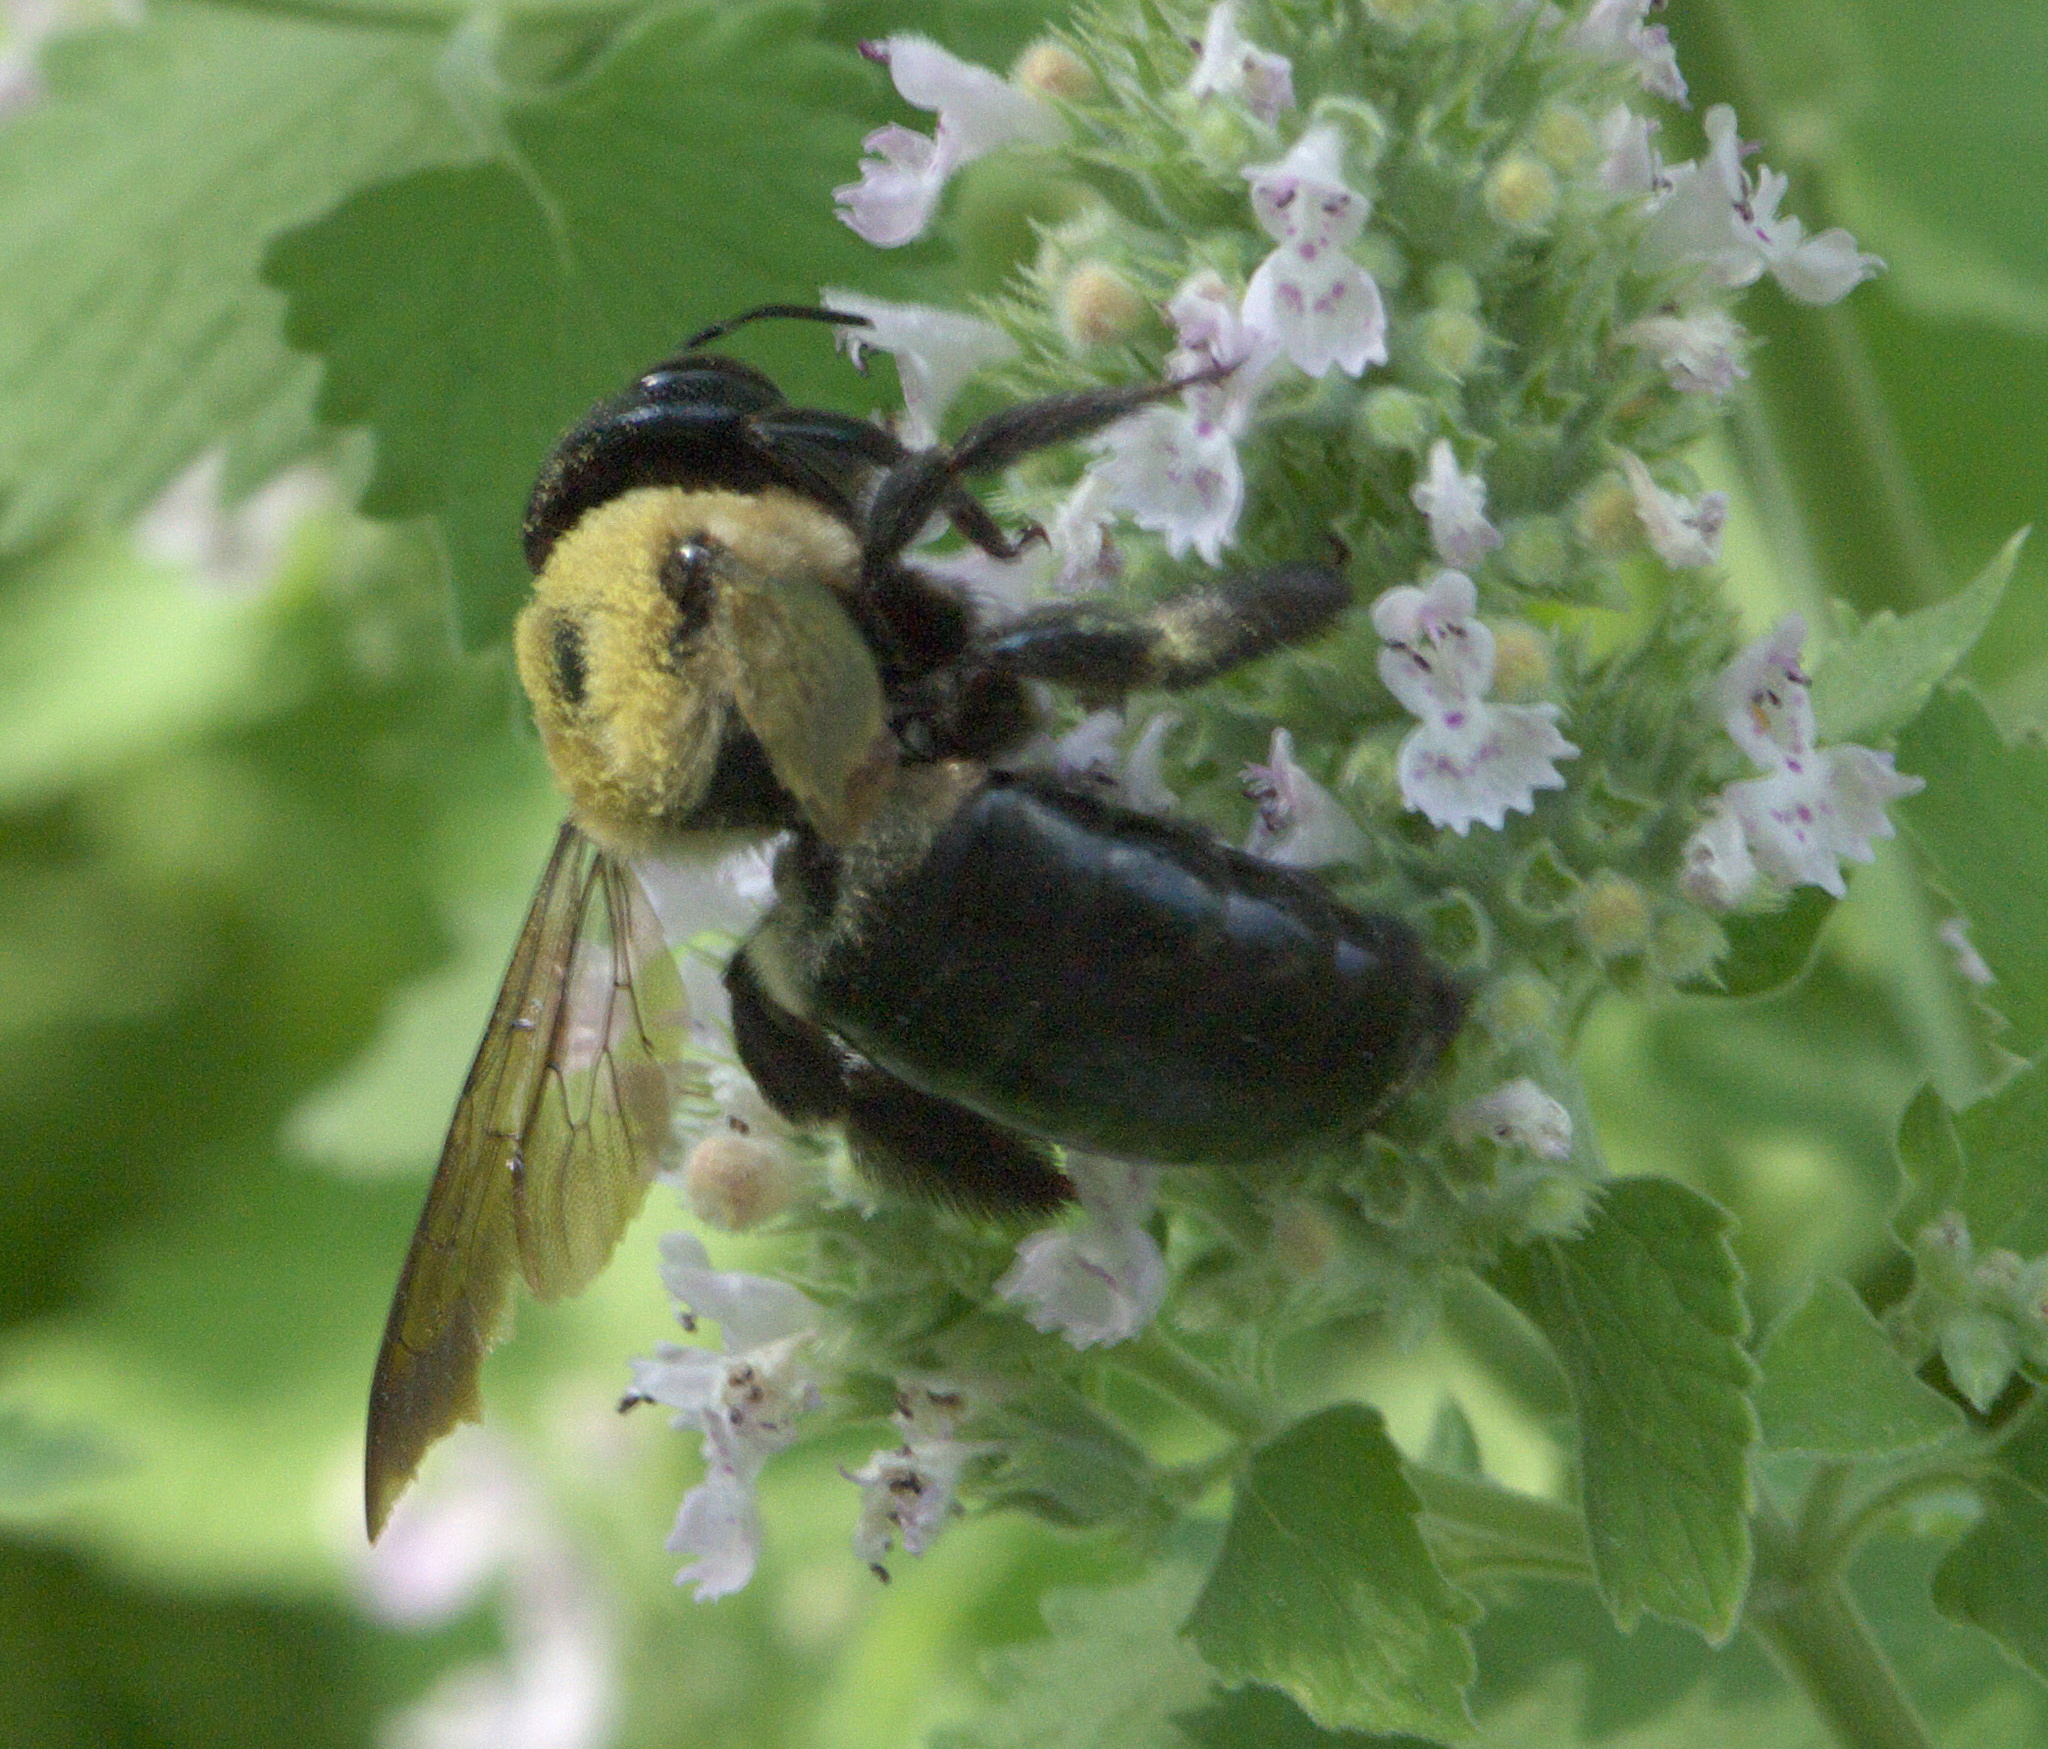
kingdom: Animalia
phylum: Arthropoda
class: Insecta
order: Hymenoptera
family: Apidae
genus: Xylocopa
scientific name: Xylocopa virginica
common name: Carpenter bee
